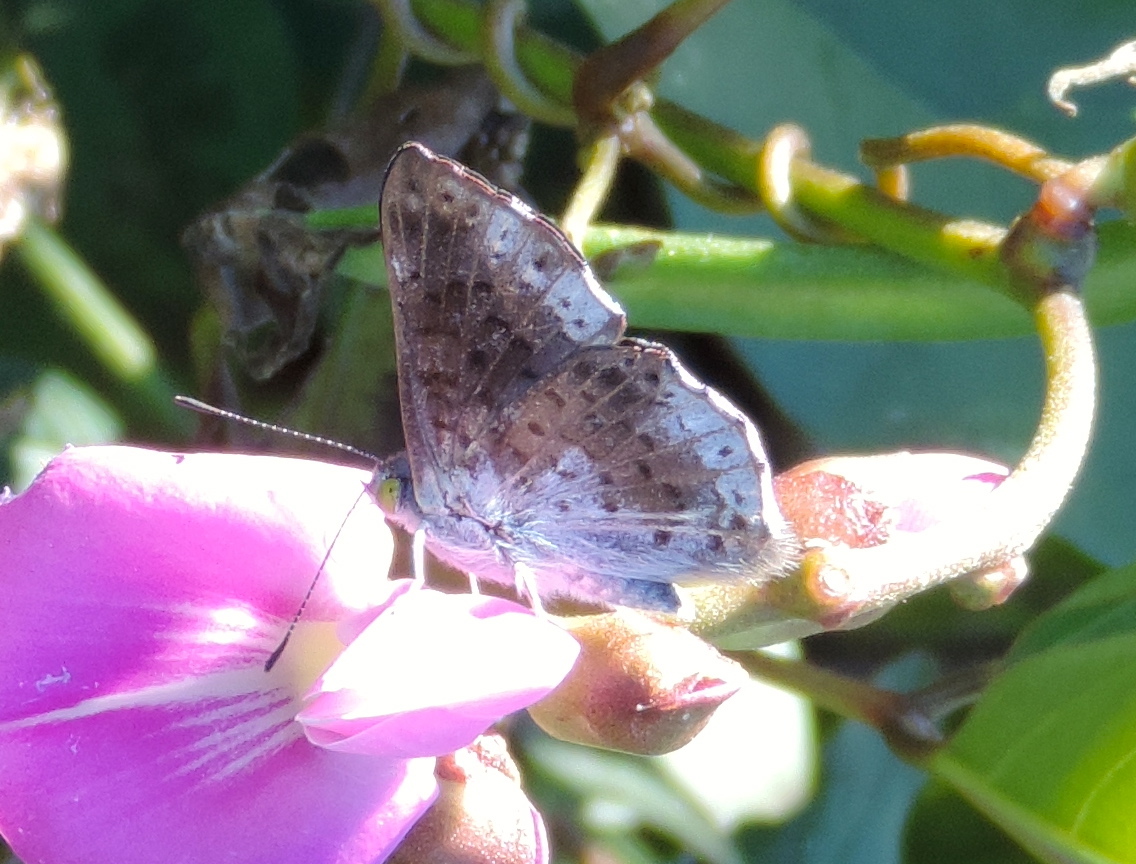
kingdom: Animalia
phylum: Arthropoda
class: Insecta
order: Lepidoptera
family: Riodinidae
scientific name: Riodinidae
